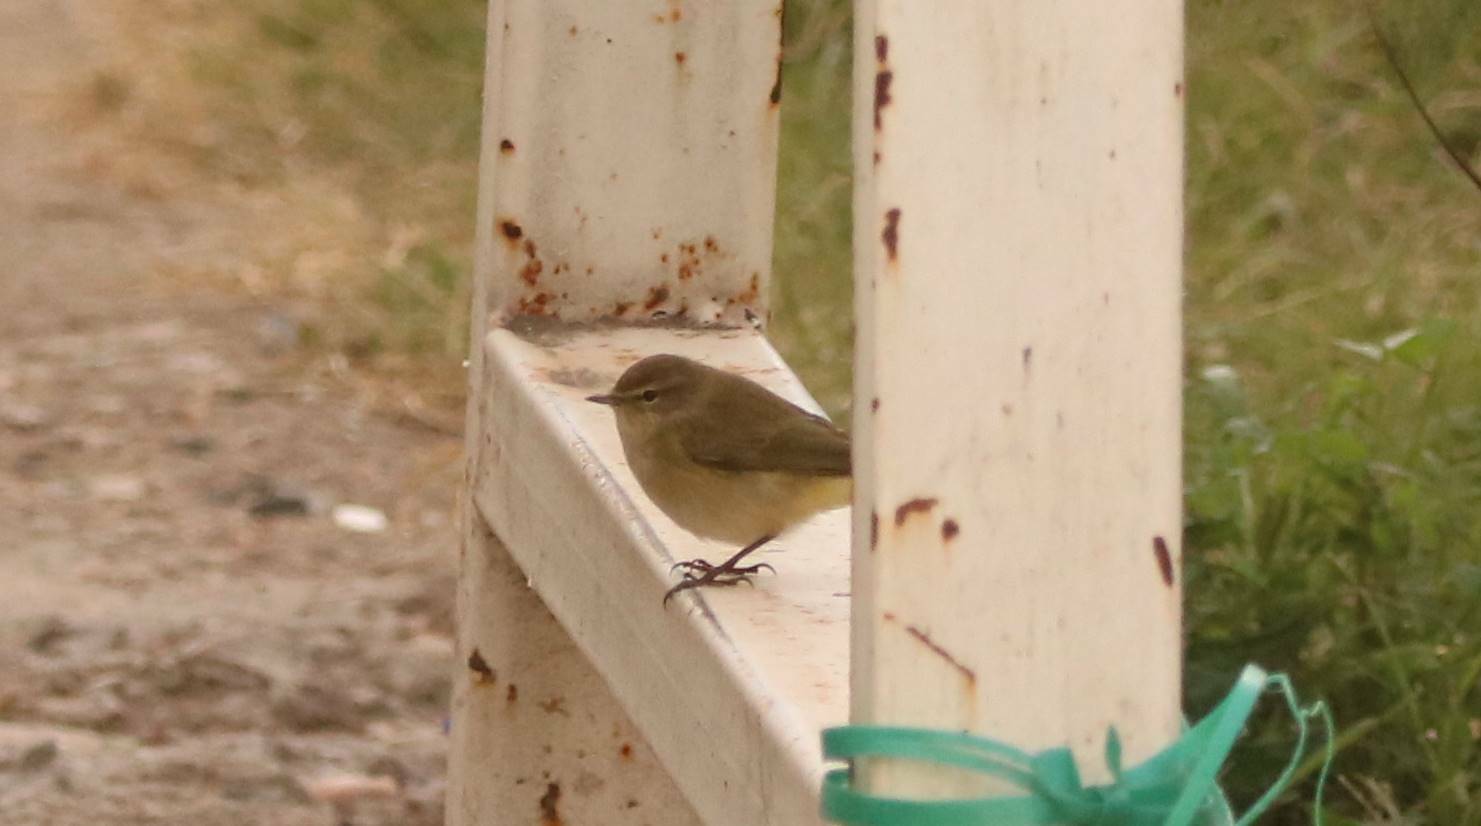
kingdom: Animalia
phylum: Chordata
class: Aves
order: Passeriformes
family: Phylloscopidae
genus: Phylloscopus
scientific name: Phylloscopus collybita
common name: Common chiffchaff
